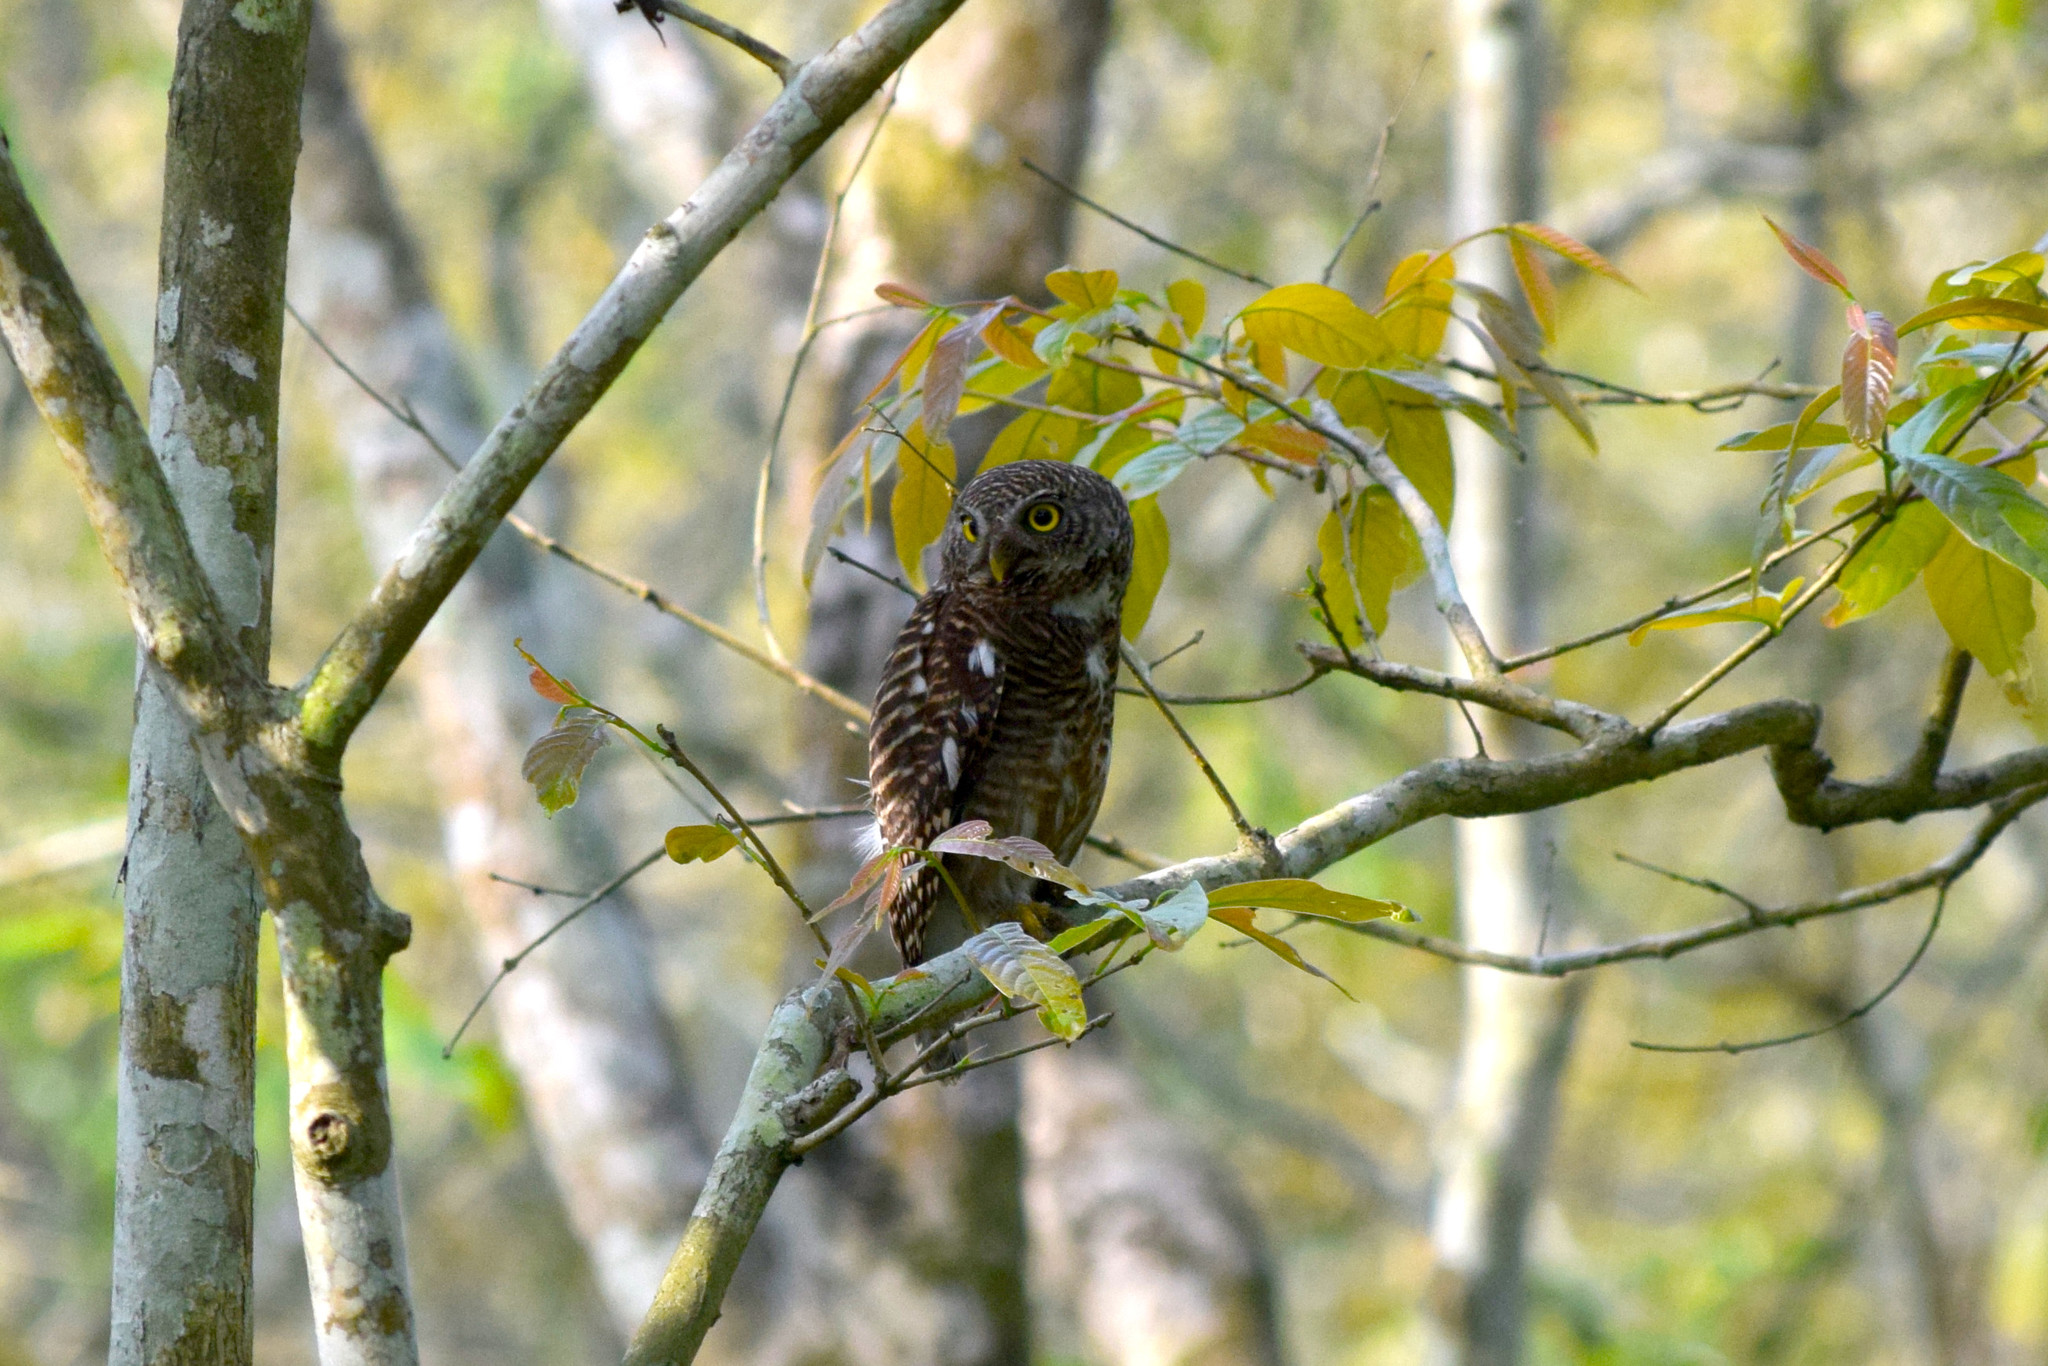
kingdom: Animalia
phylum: Chordata
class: Aves
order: Strigiformes
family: Strigidae
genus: Glaucidium
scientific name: Glaucidium cuculoides
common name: Asian barred owlet
